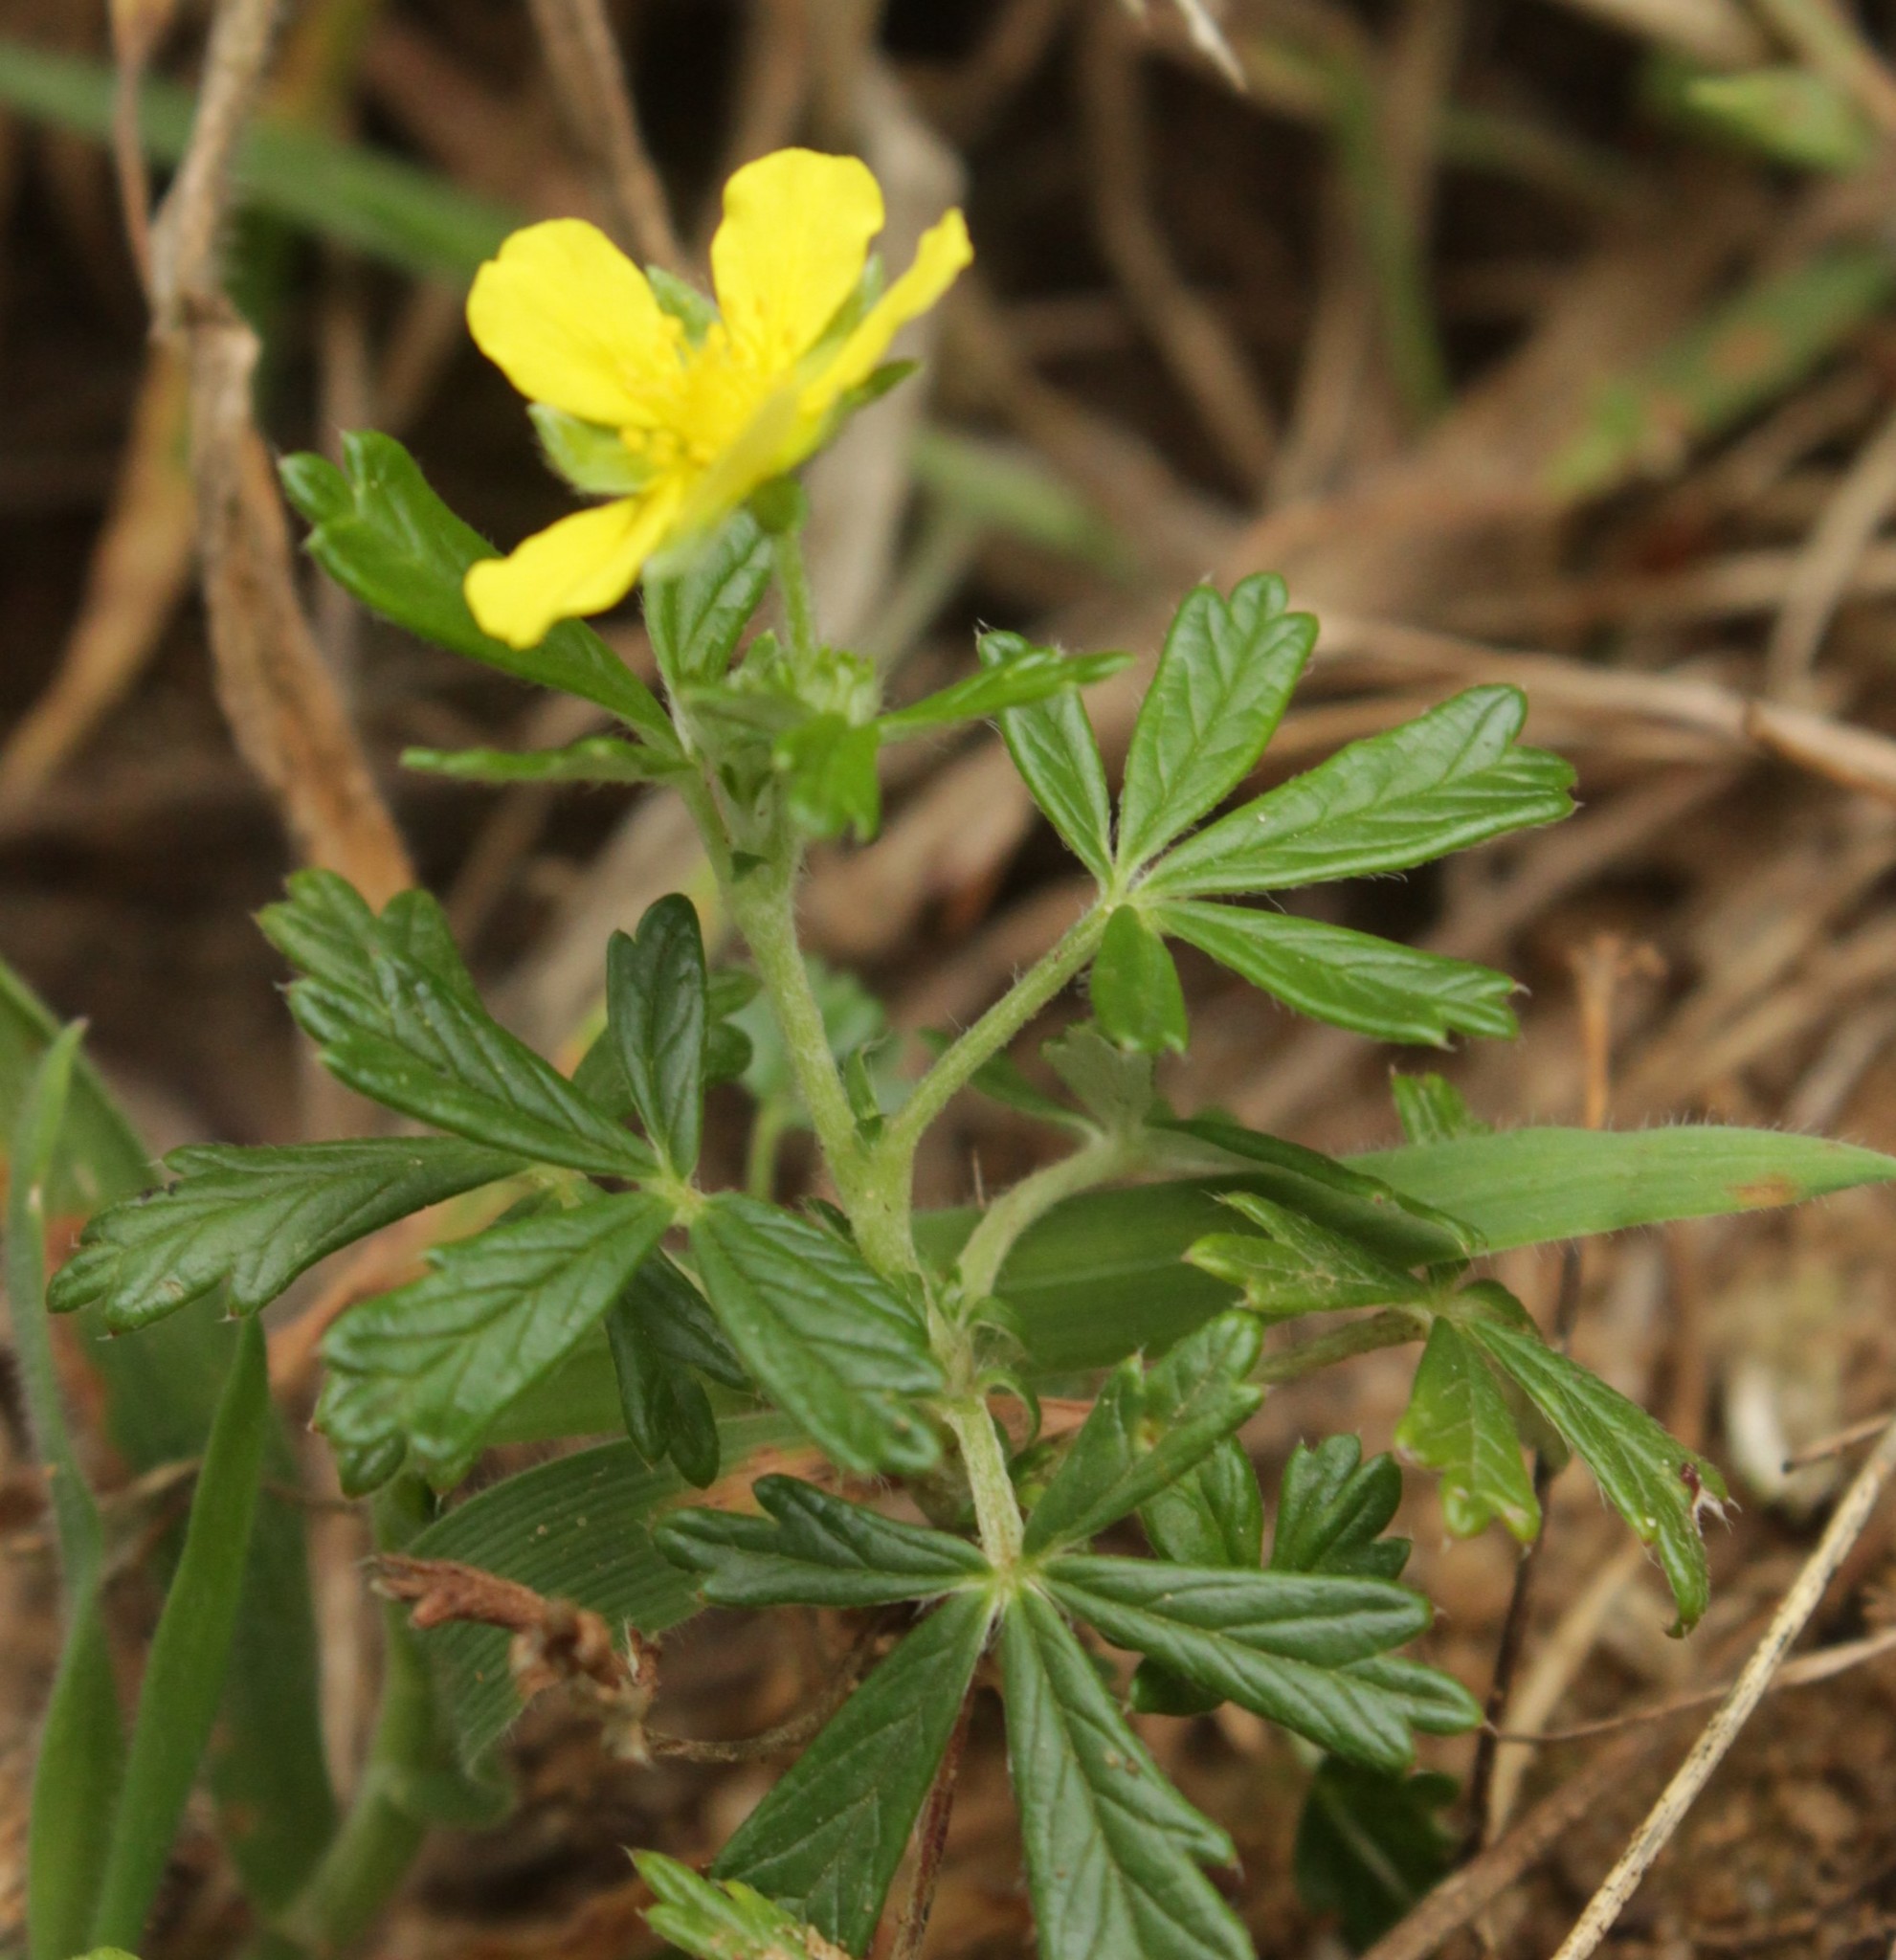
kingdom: Plantae
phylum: Tracheophyta
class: Magnoliopsida
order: Rosales
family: Rosaceae
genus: Potentilla
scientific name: Potentilla argentea
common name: Hoary cinquefoil
